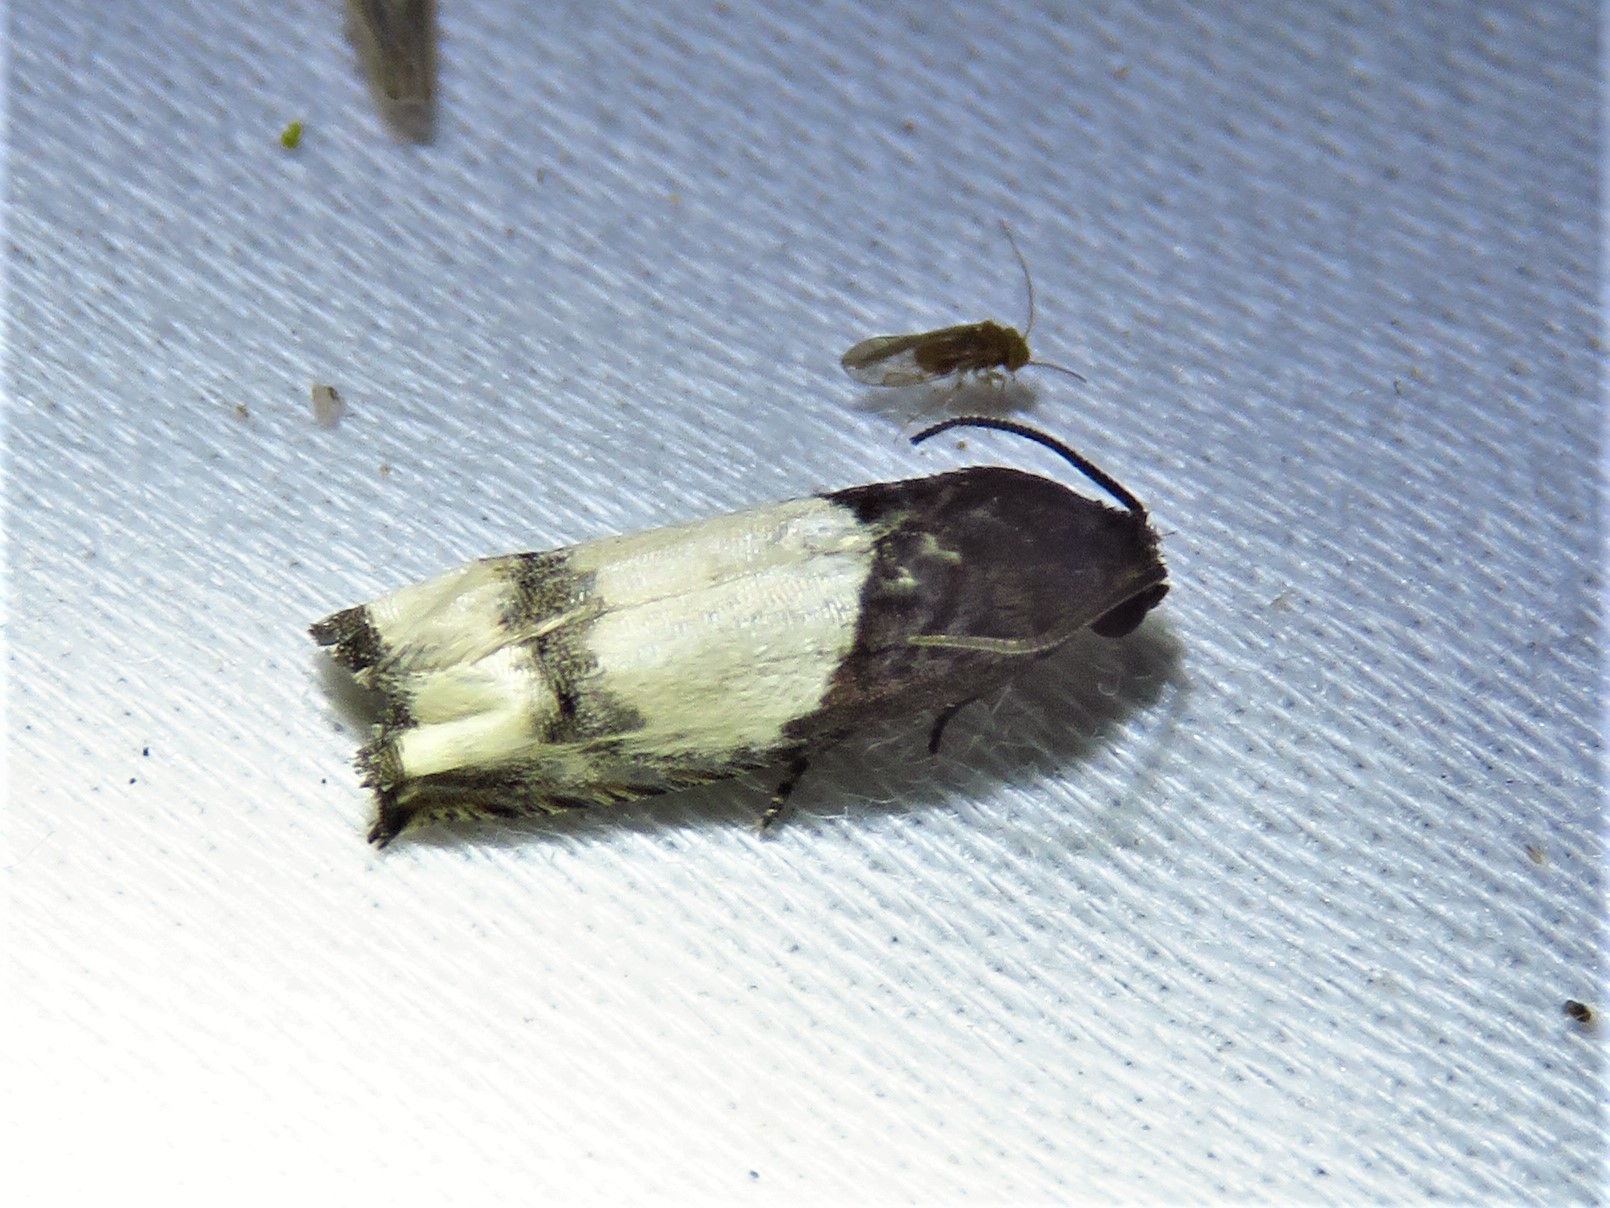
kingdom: Animalia
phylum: Arthropoda
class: Insecta
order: Lepidoptera
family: Tortricidae
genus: Epiblema
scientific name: Epiblema scudderiana
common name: Goldenrod gall moth
